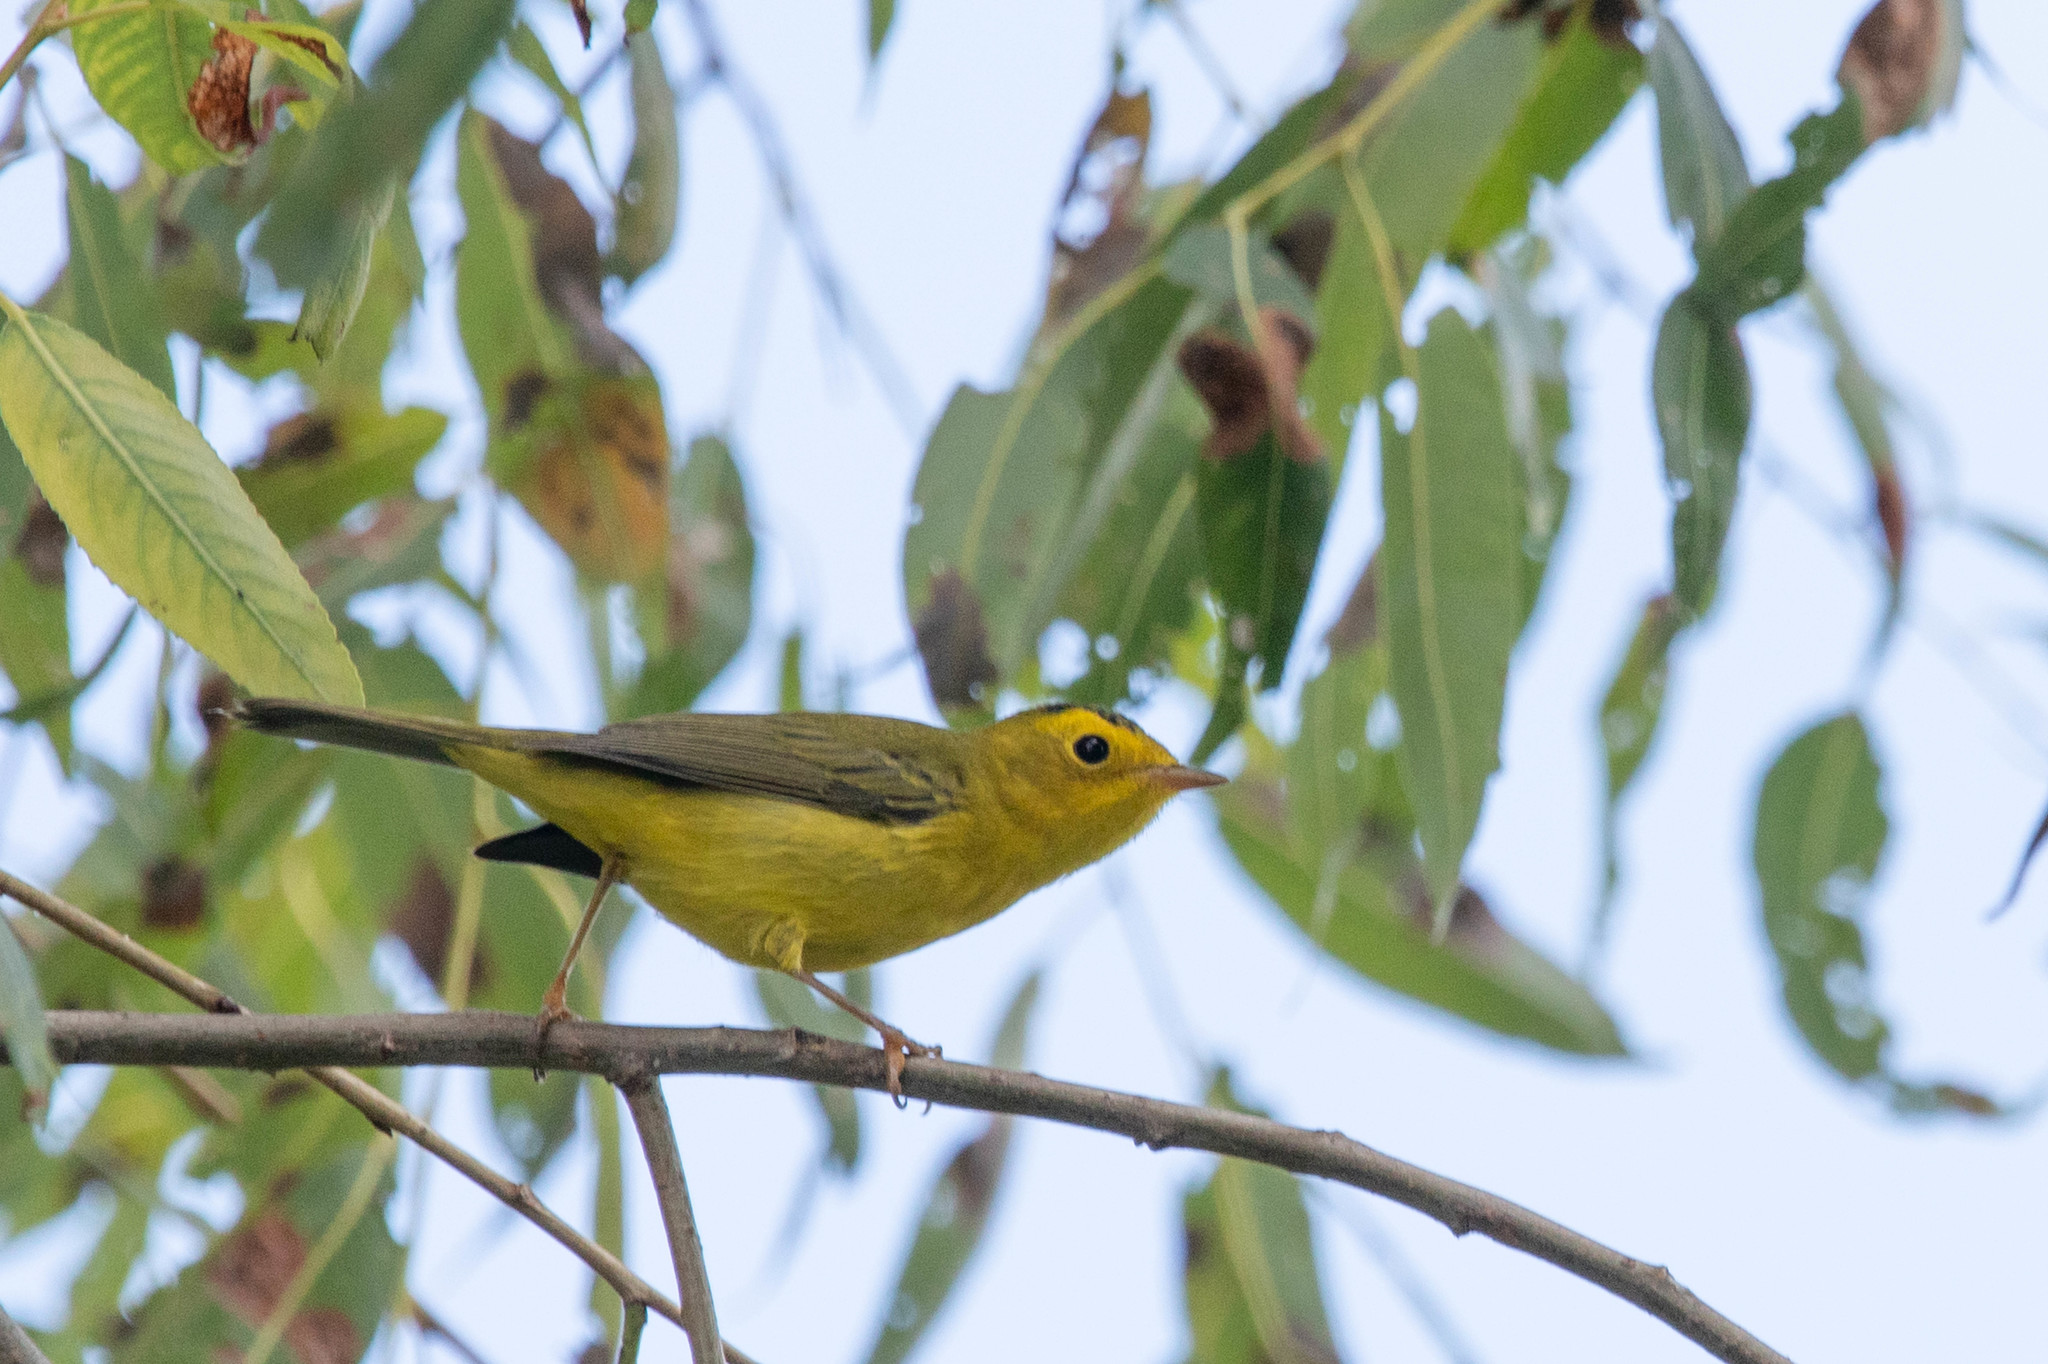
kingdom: Animalia
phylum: Chordata
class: Aves
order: Passeriformes
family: Parulidae
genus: Cardellina
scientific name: Cardellina pusilla
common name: Wilson's warbler
